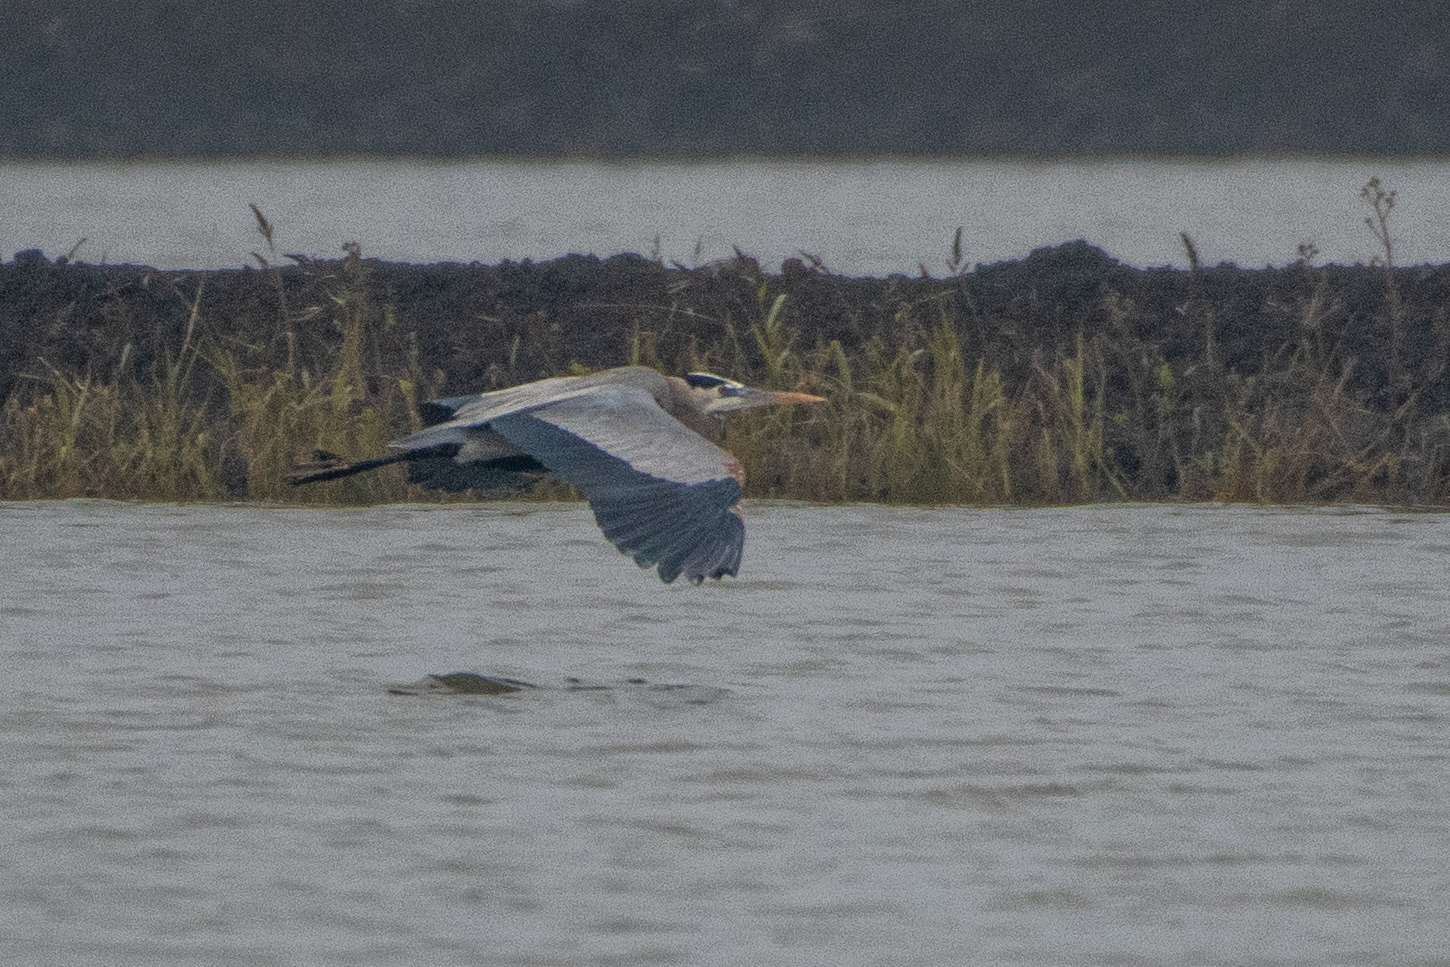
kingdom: Animalia
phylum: Chordata
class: Aves
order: Pelecaniformes
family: Ardeidae
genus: Ardea
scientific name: Ardea herodias
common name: Great blue heron
